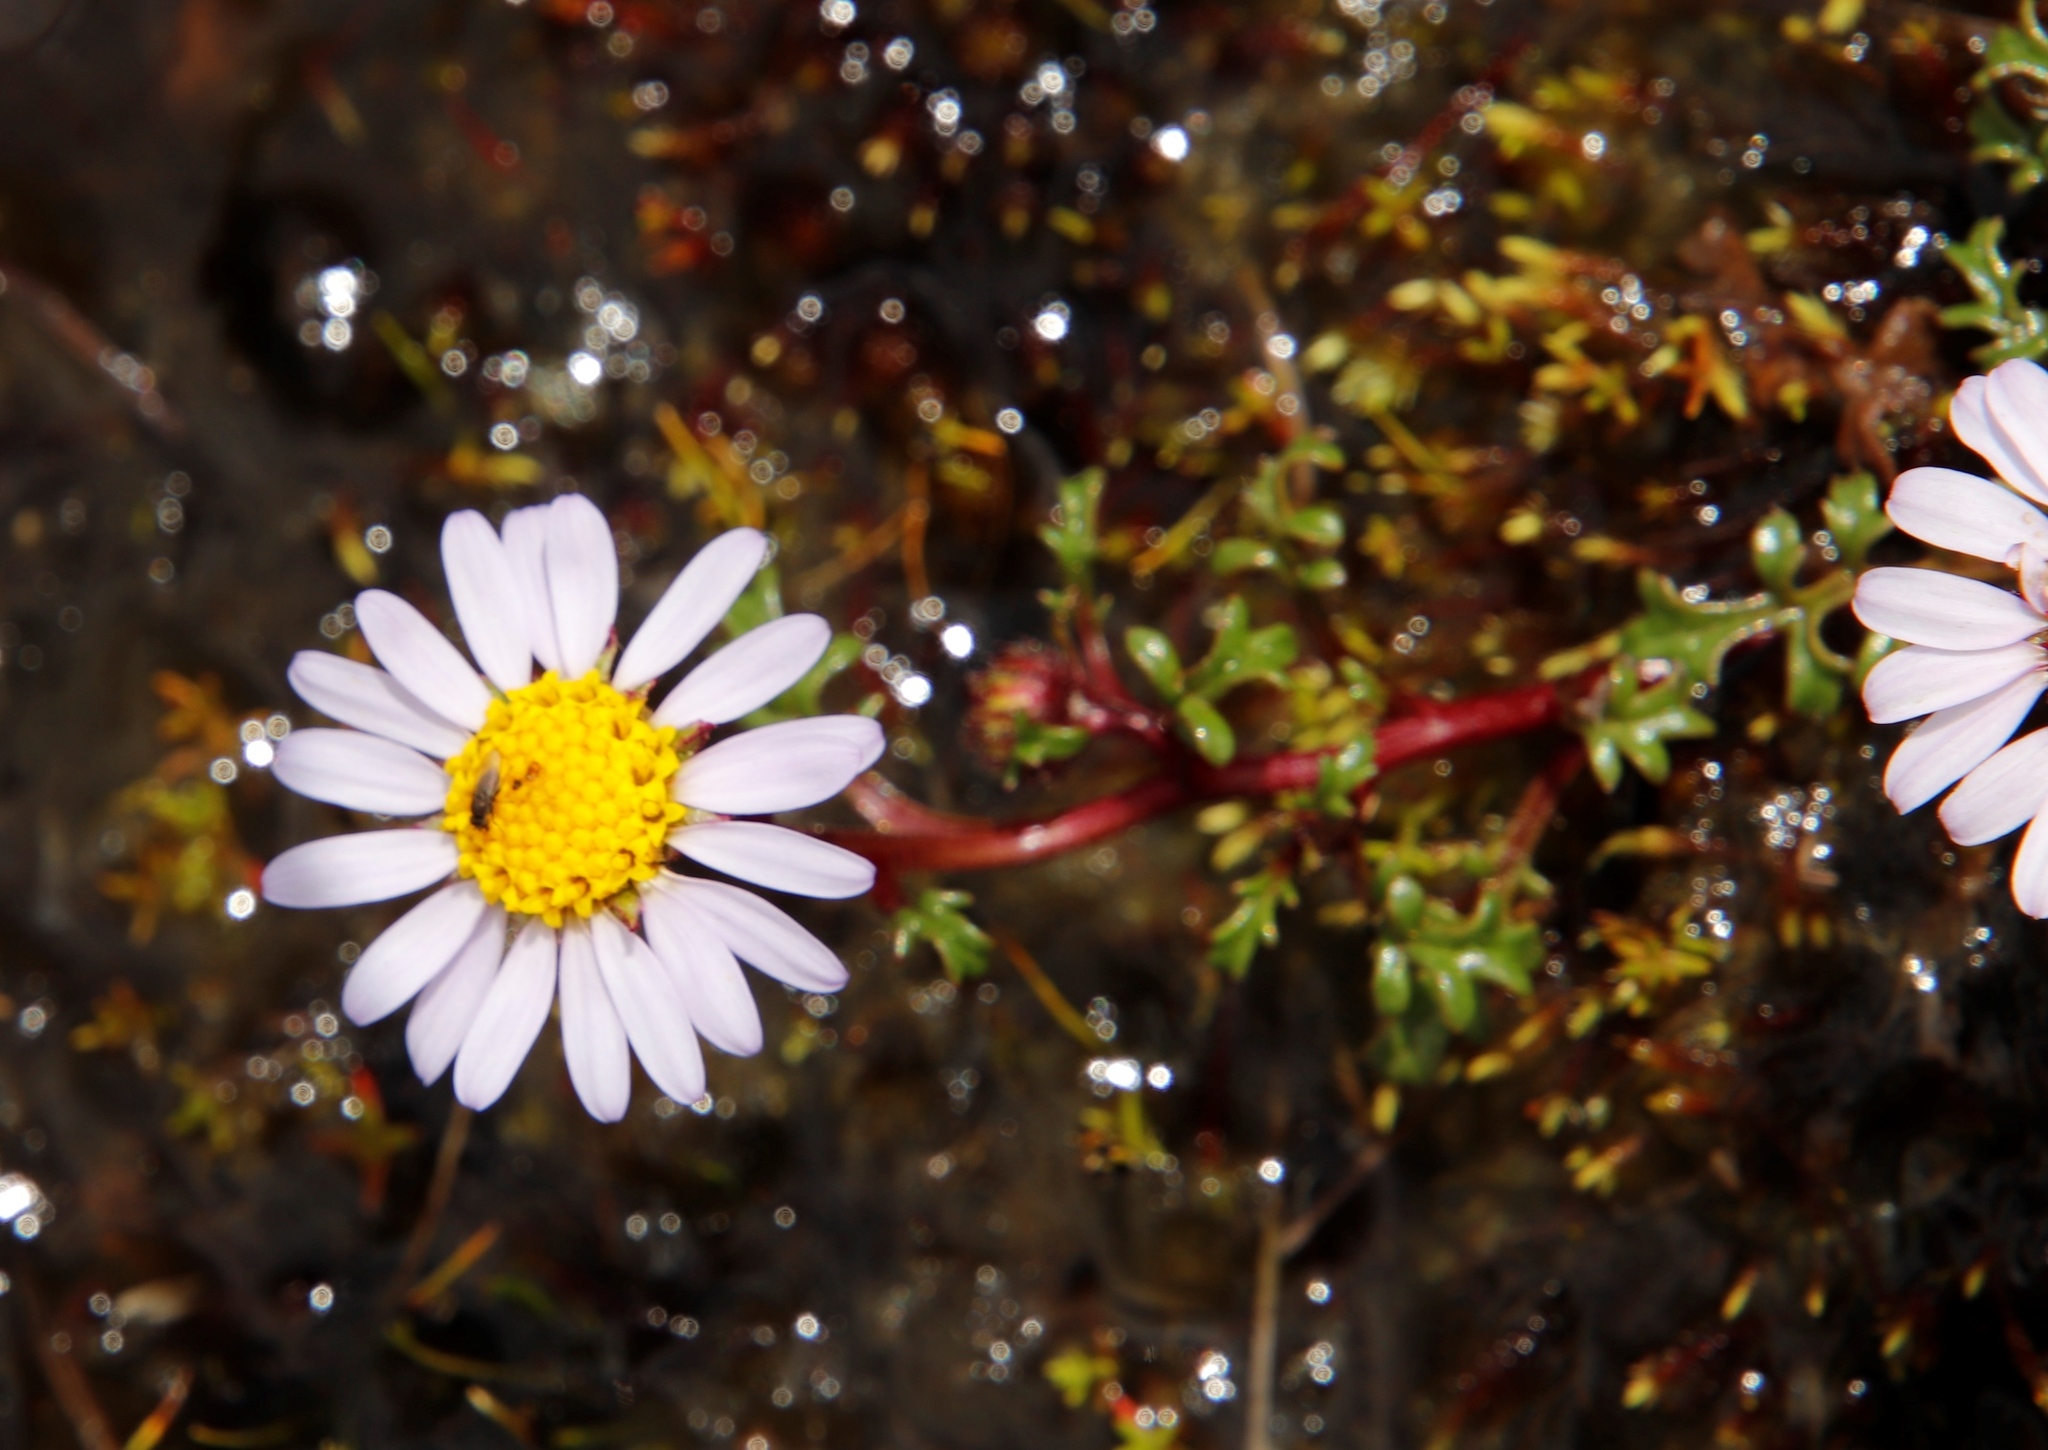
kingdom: Plantae
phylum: Tracheophyta
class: Magnoliopsida
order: Asterales
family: Asteraceae
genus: Afroaster
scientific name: Afroaster erucifolius
